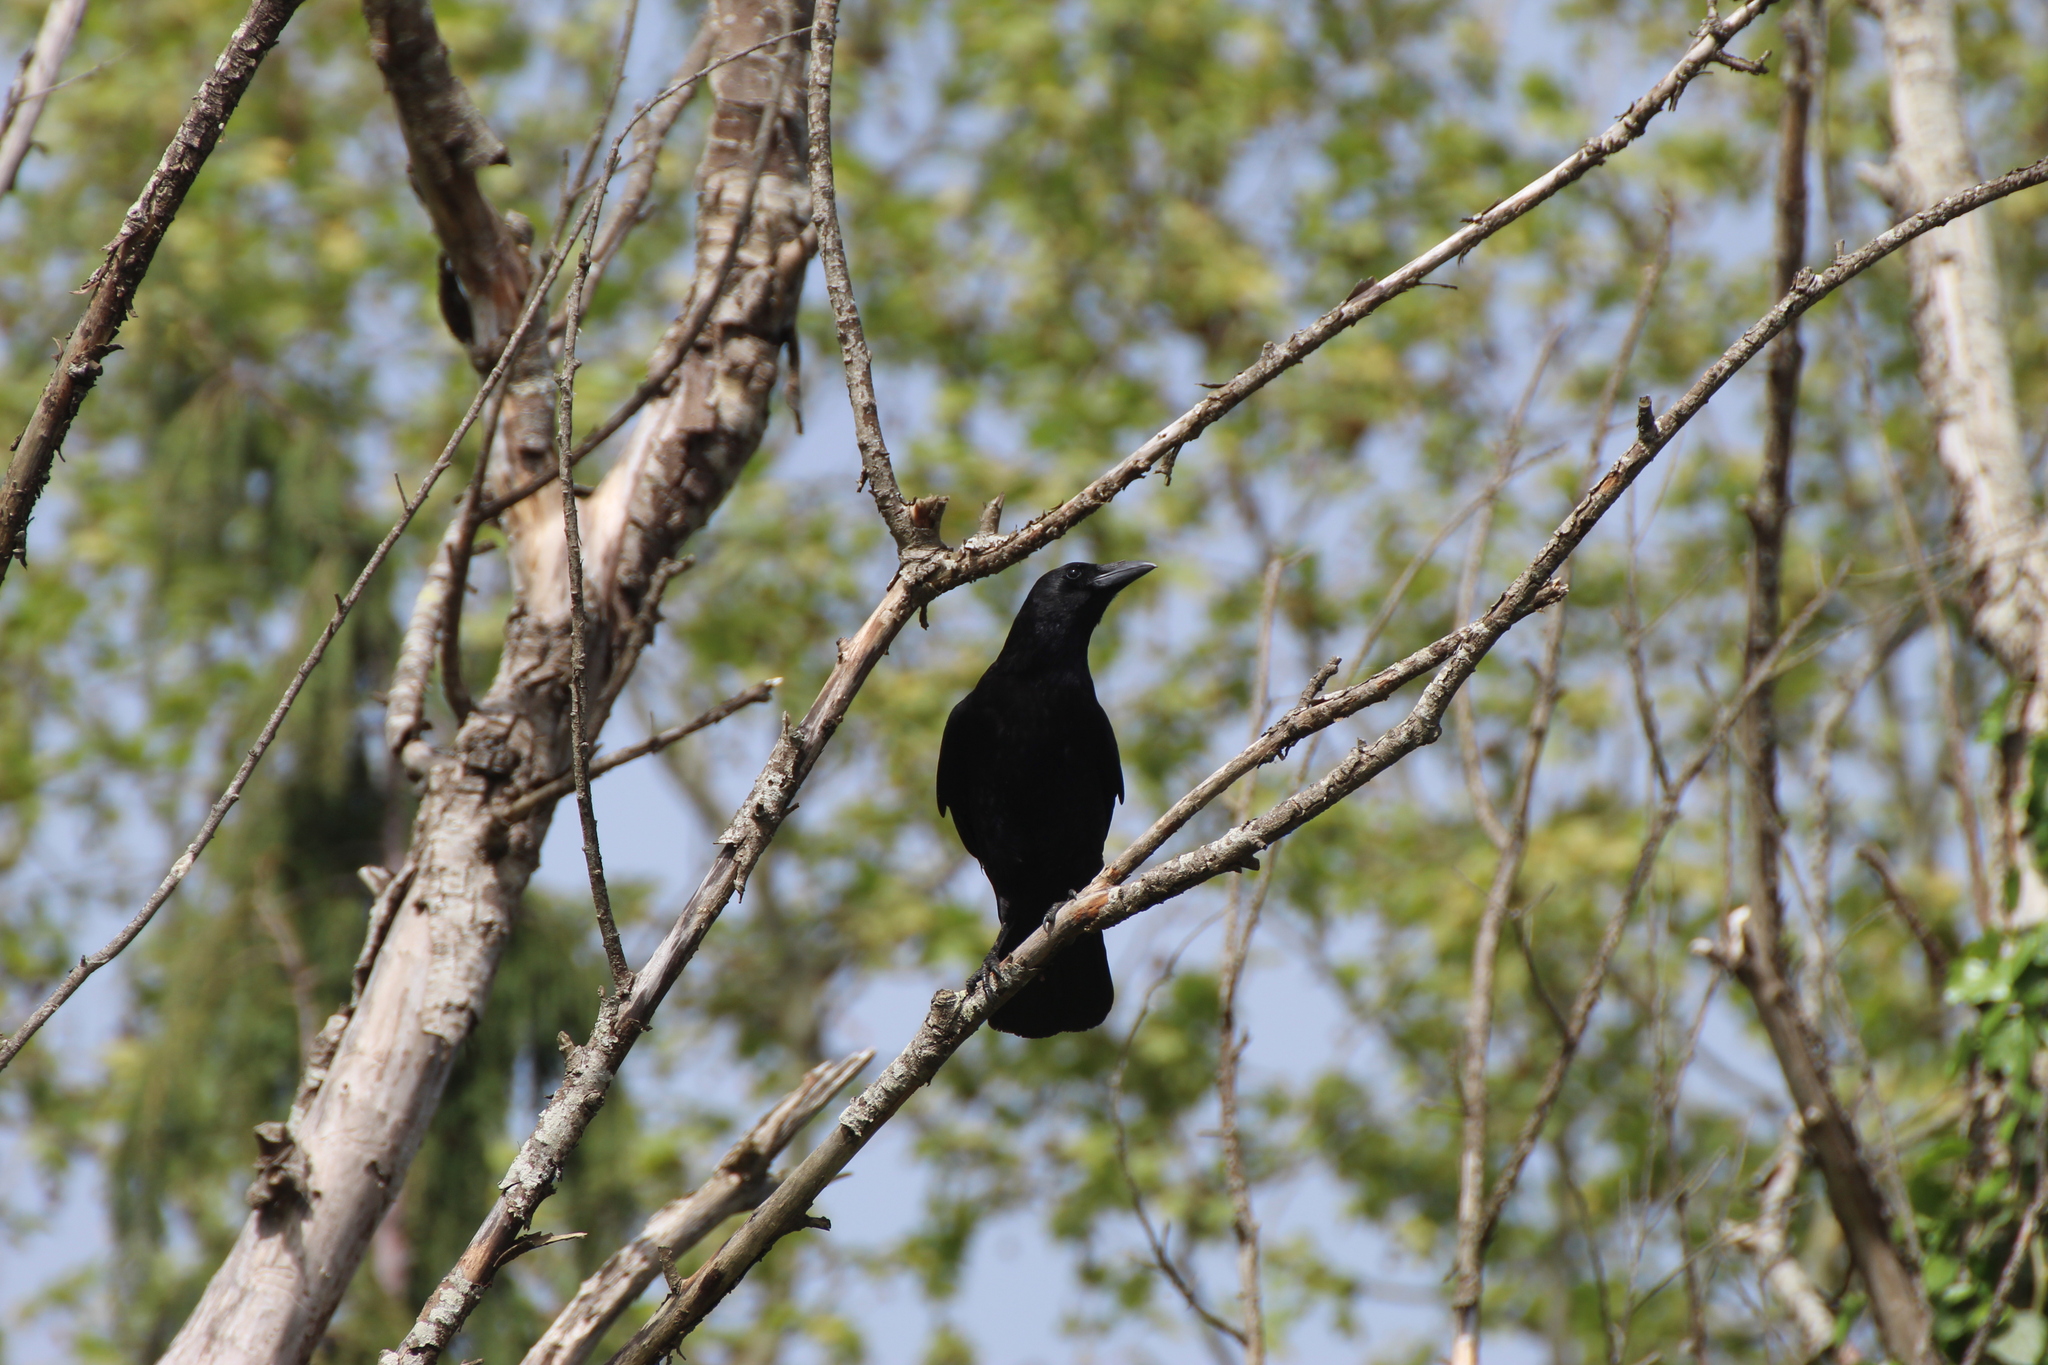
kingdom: Animalia
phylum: Chordata
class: Aves
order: Passeriformes
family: Corvidae
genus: Corvus
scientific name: Corvus corone
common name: Carrion crow
